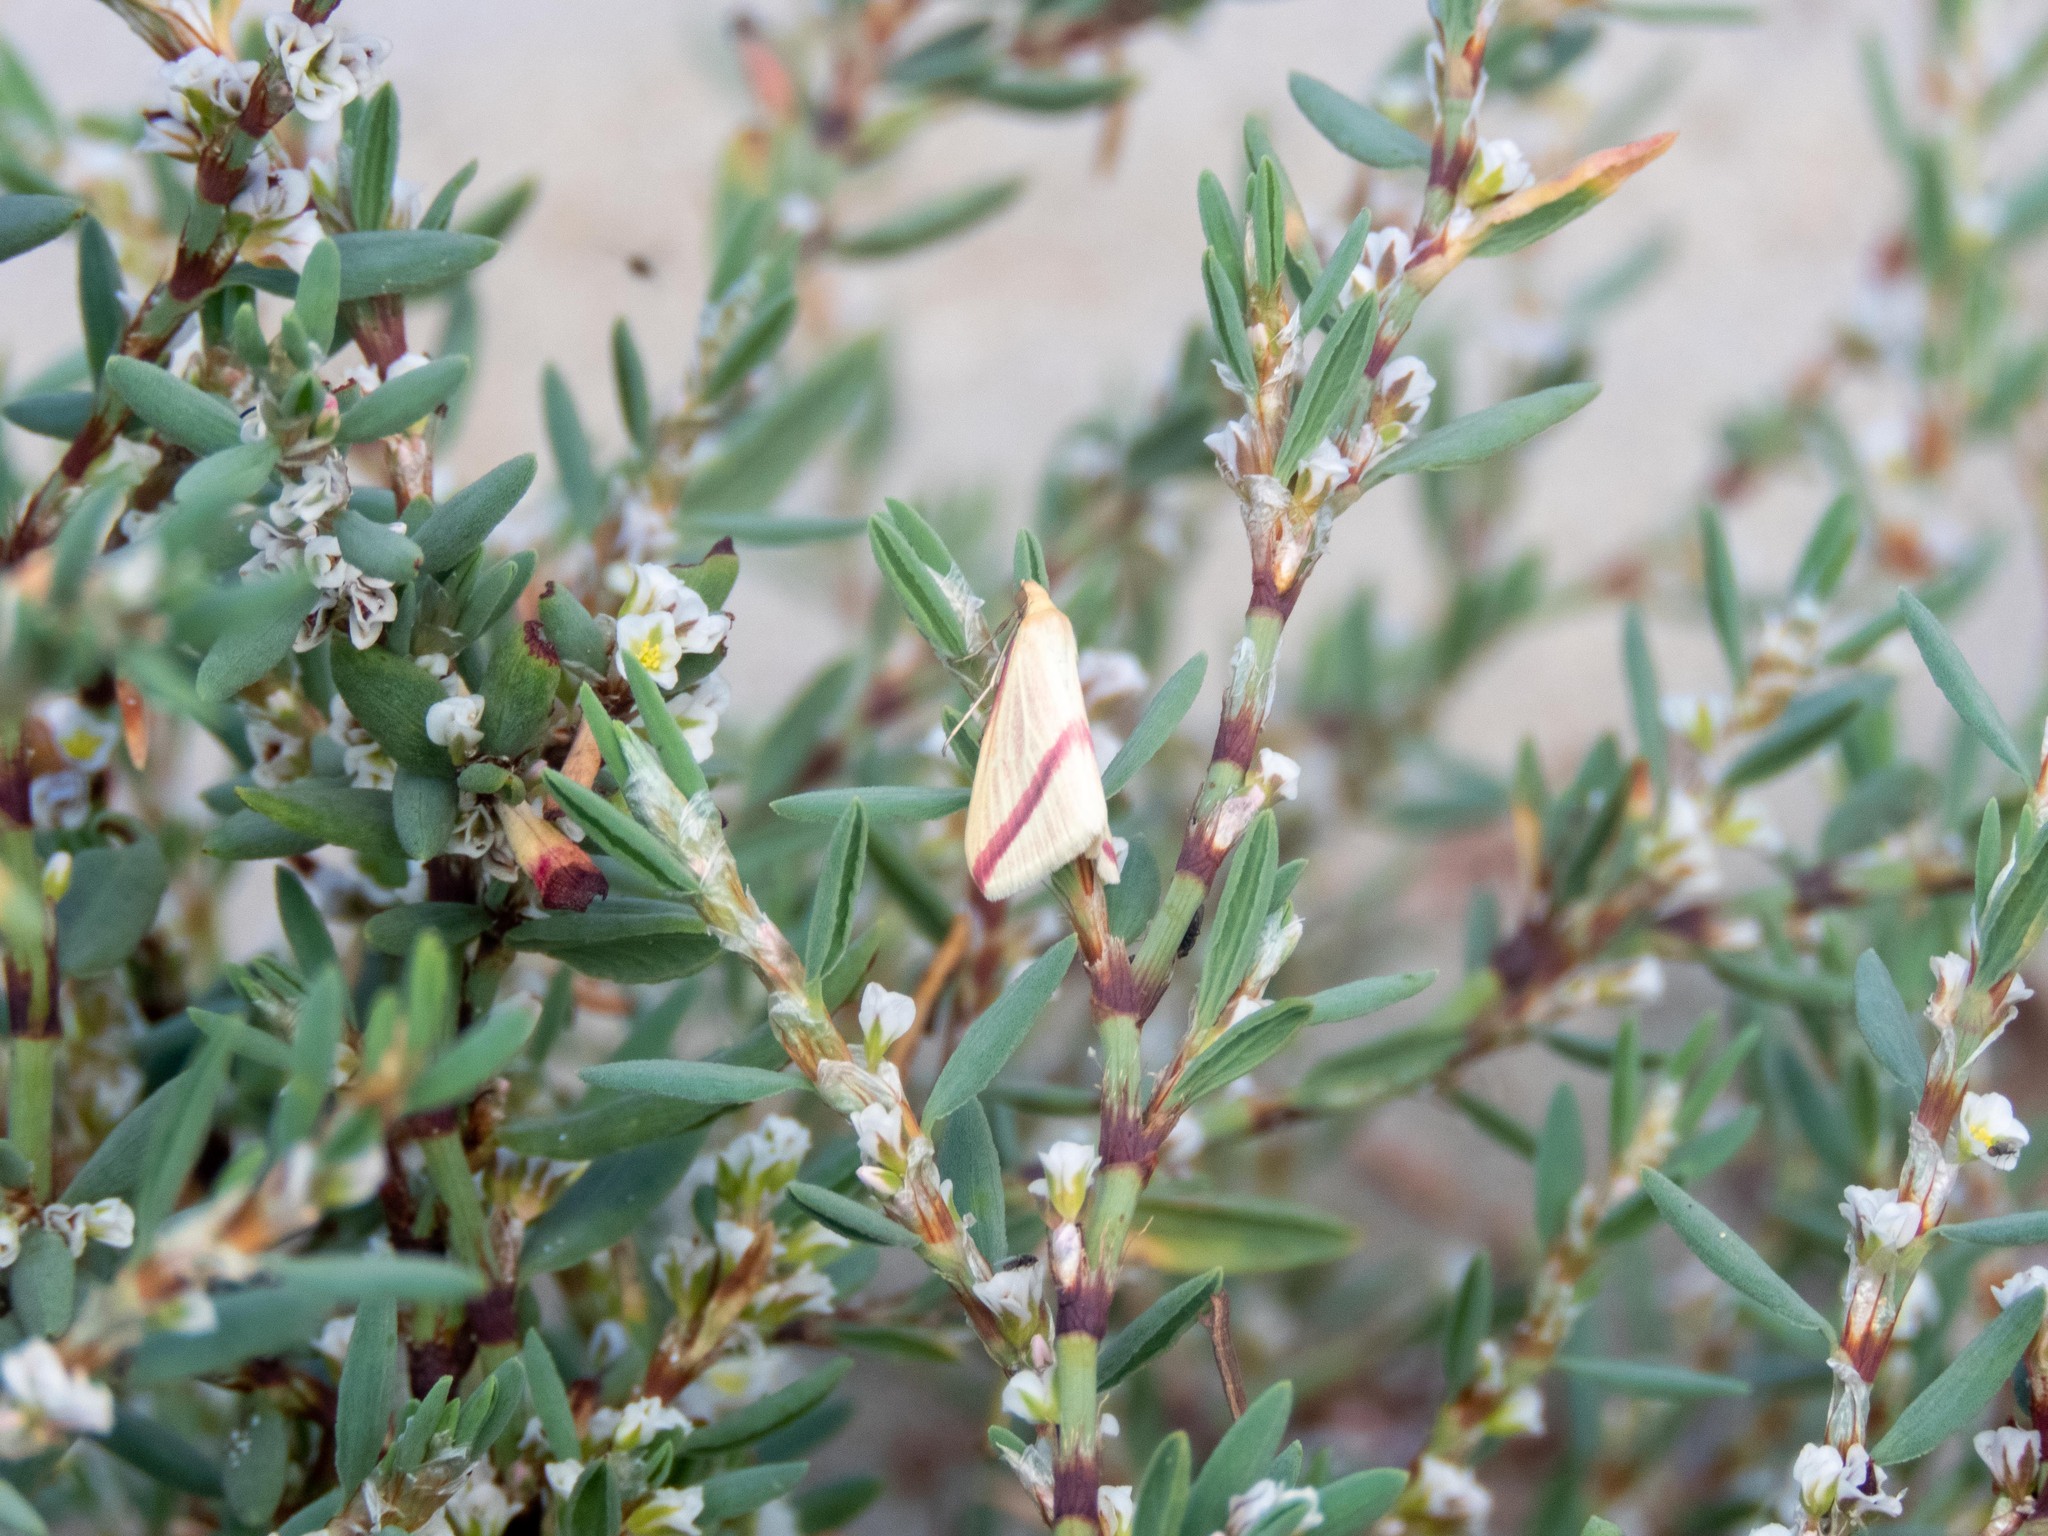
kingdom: Animalia
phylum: Arthropoda
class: Insecta
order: Lepidoptera
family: Geometridae
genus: Rhodometra
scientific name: Rhodometra sacraria
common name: Vestal
